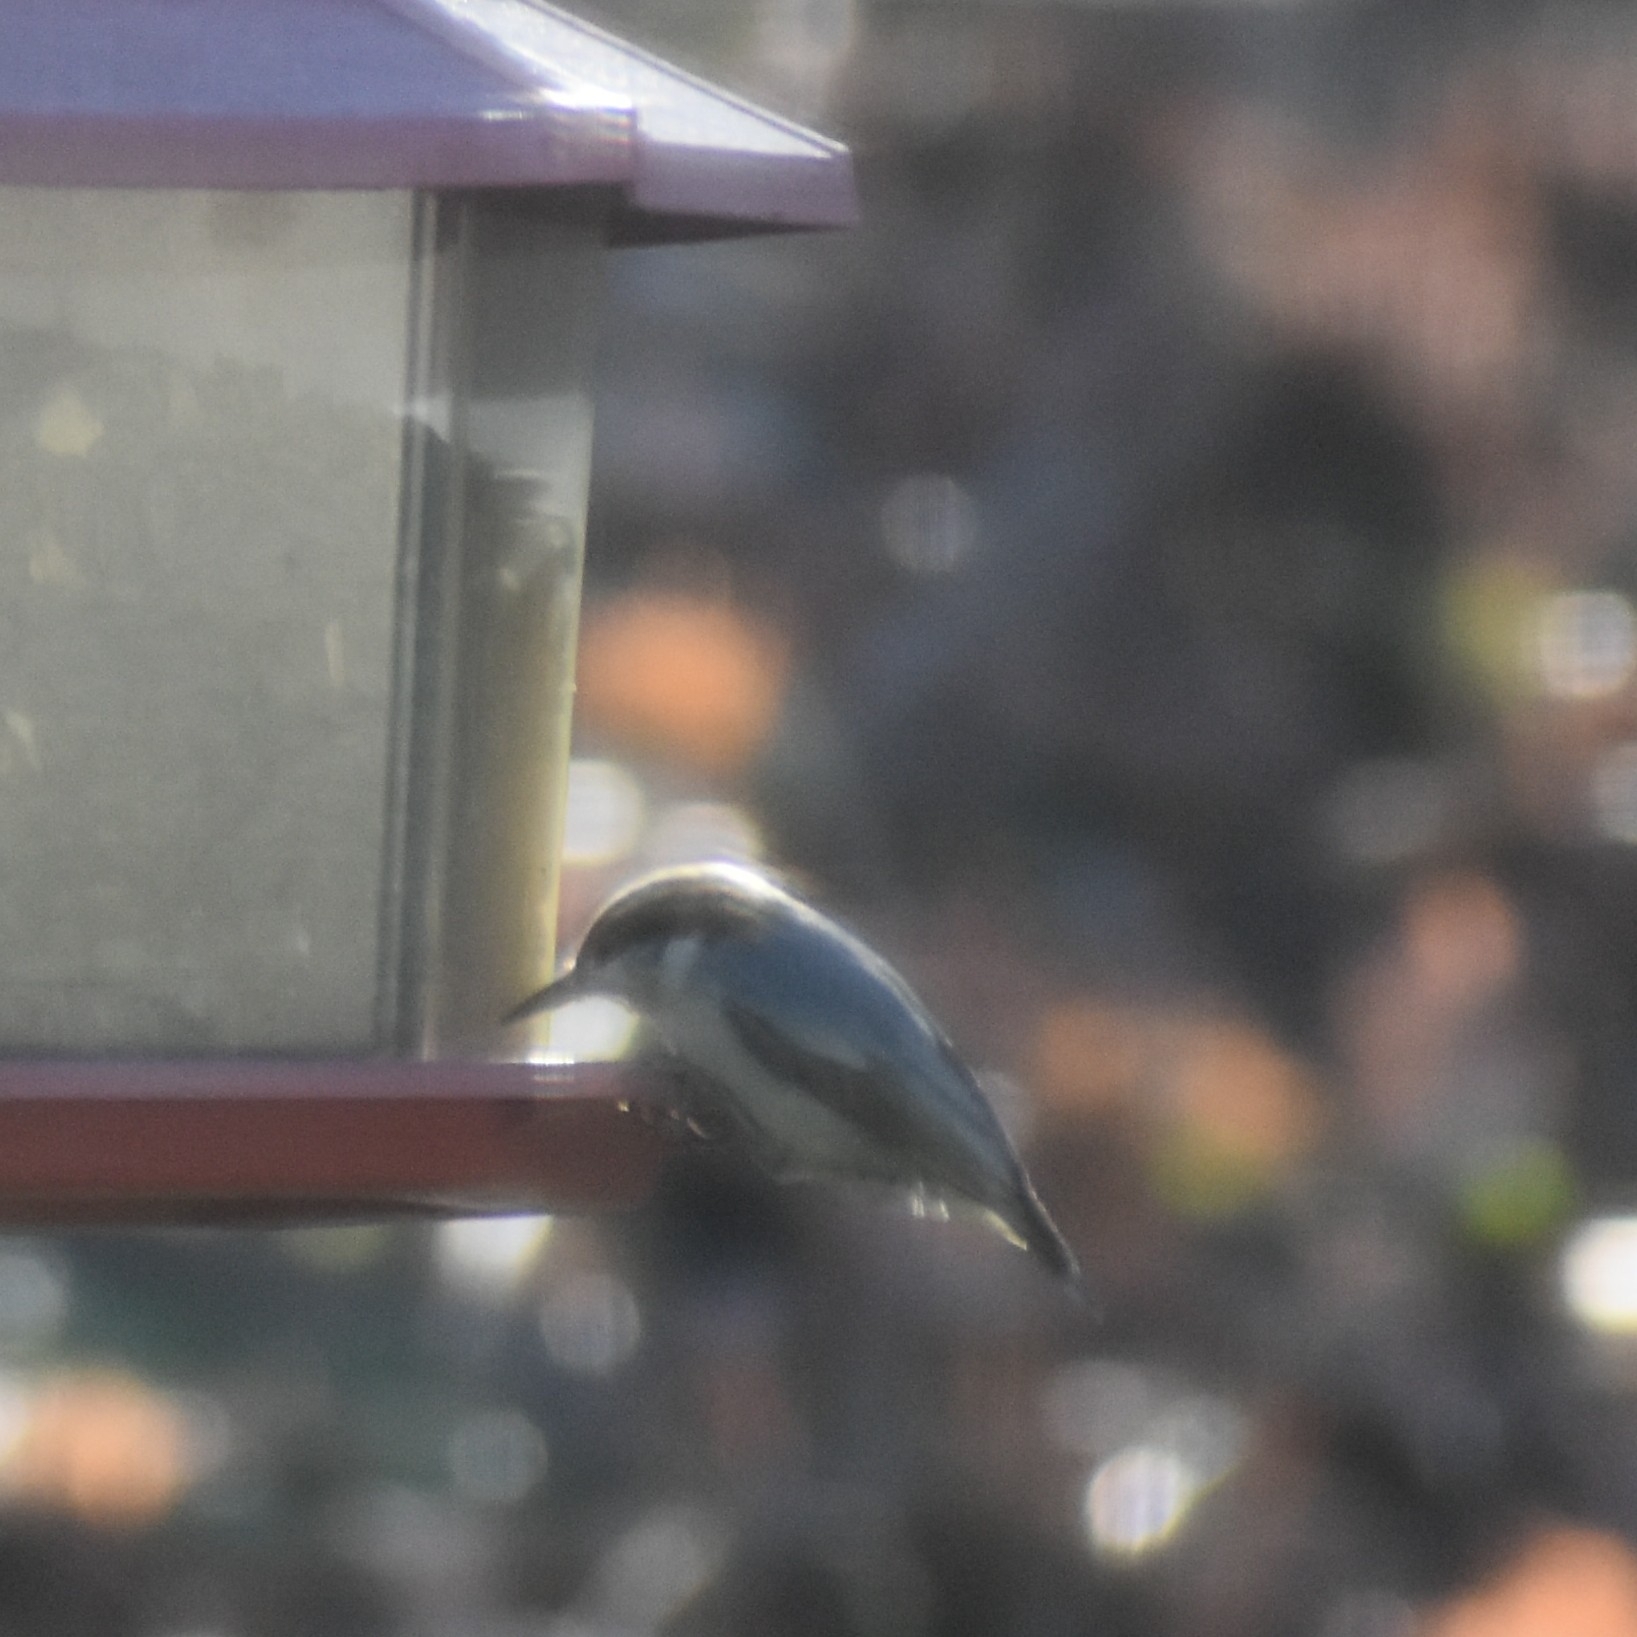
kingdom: Animalia
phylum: Chordata
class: Aves
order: Passeriformes
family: Sittidae
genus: Sitta
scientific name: Sitta pusilla
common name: Brown-headed nuthatch
